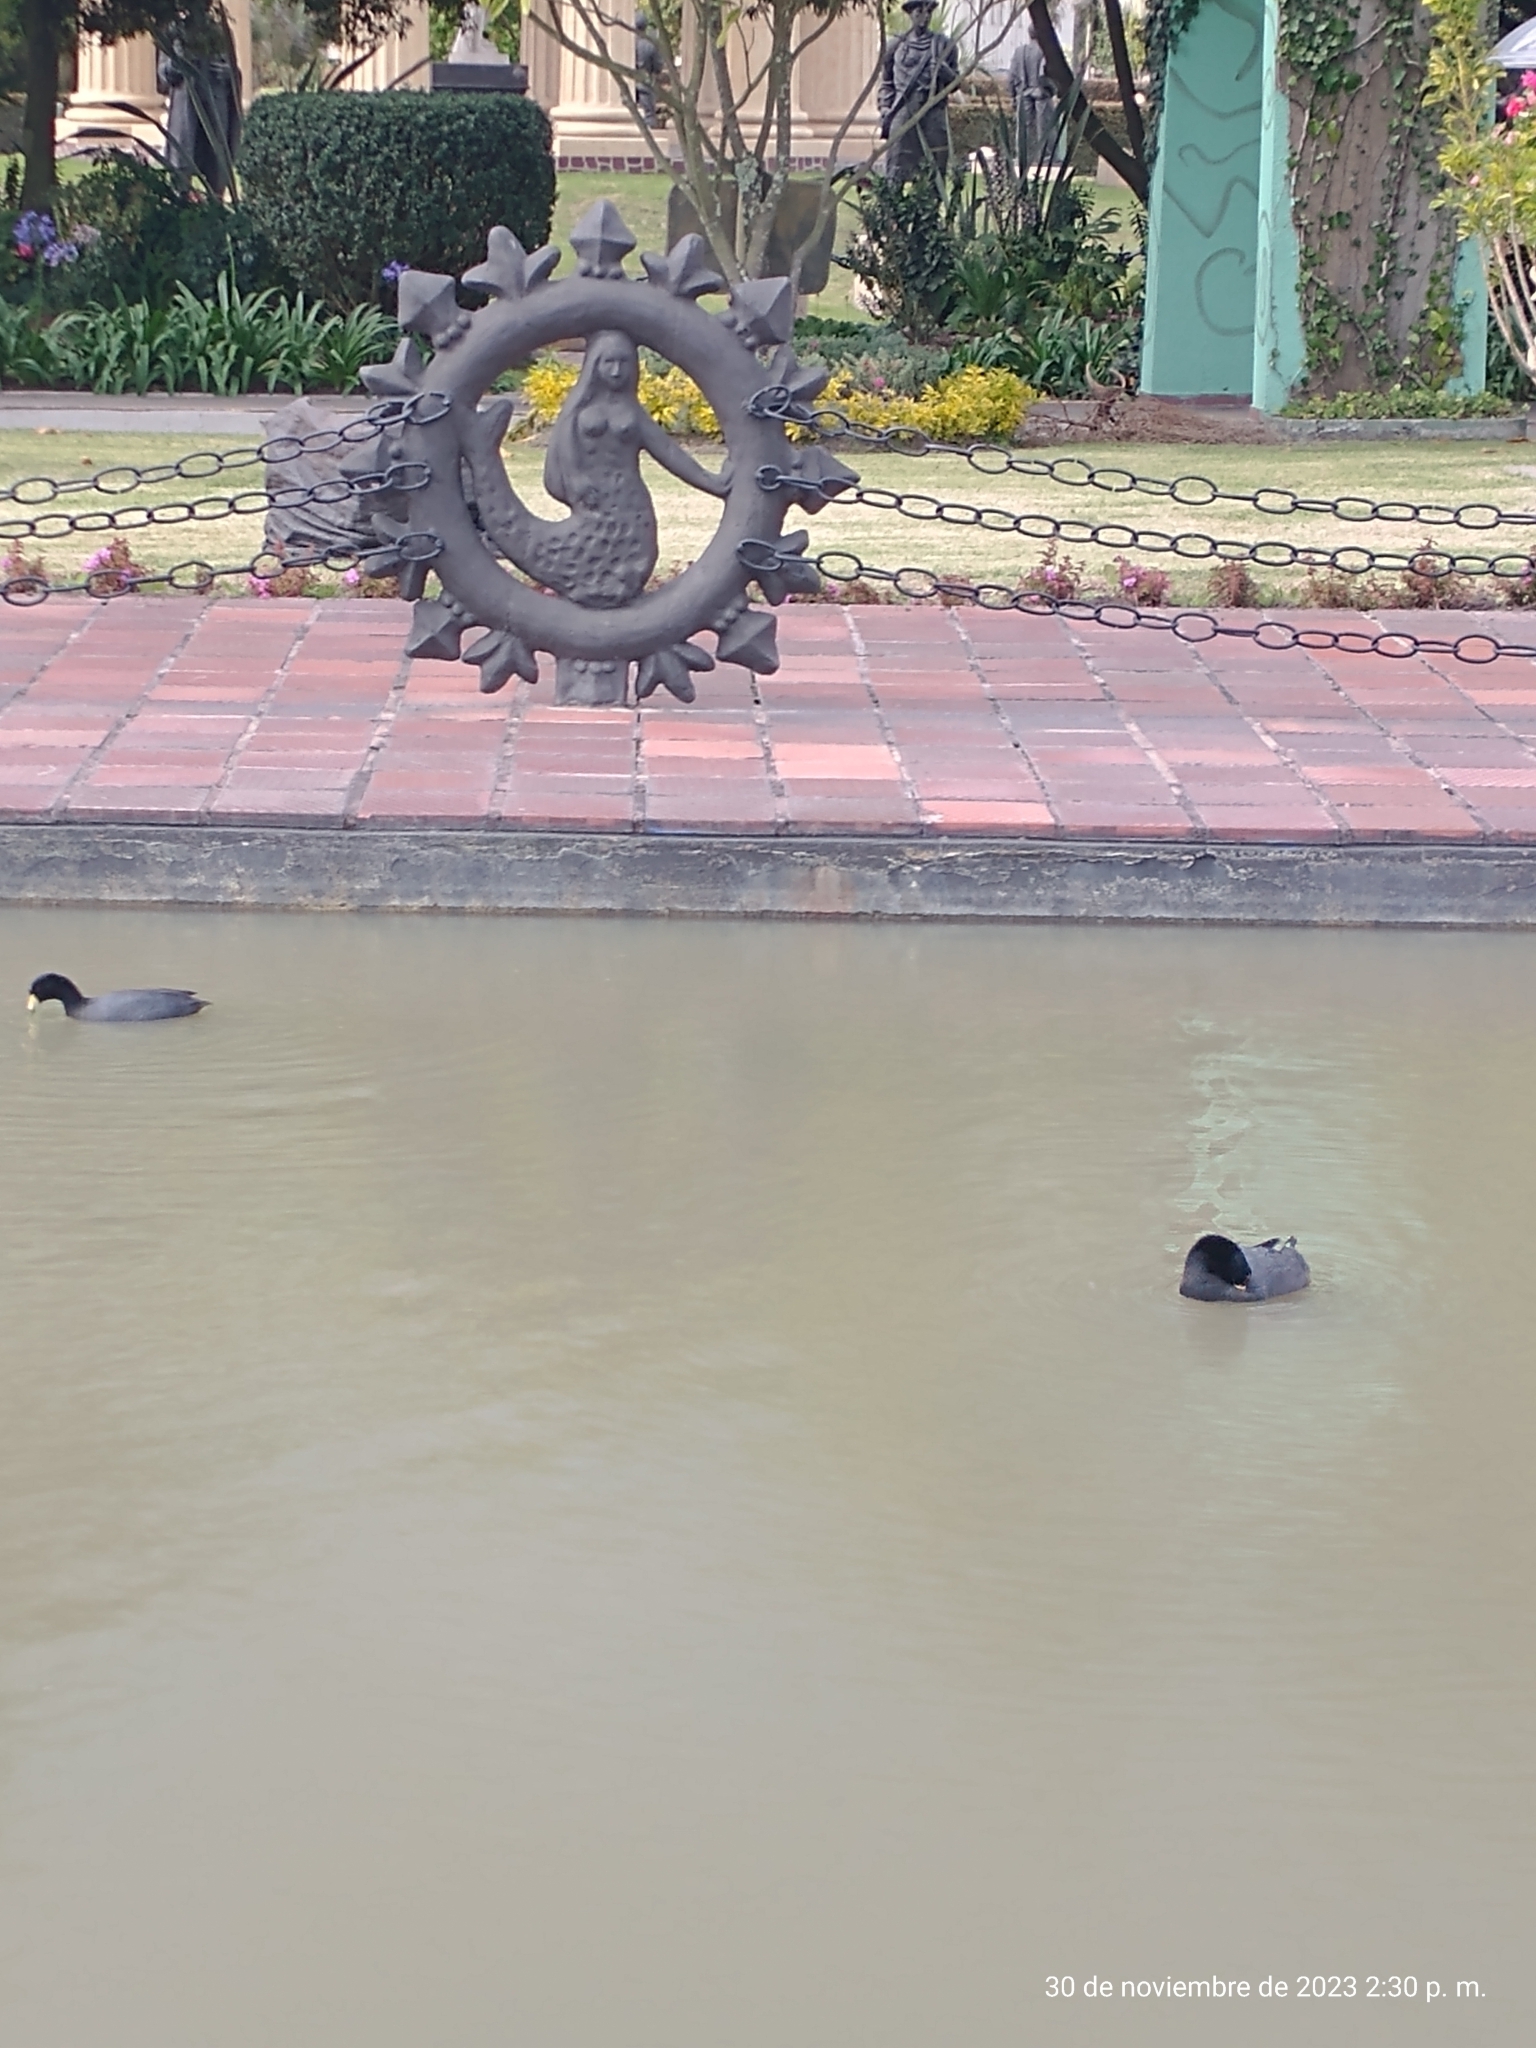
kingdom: Animalia
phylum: Chordata
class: Aves
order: Gruiformes
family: Rallidae
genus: Fulica
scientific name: Fulica americana
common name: American coot
